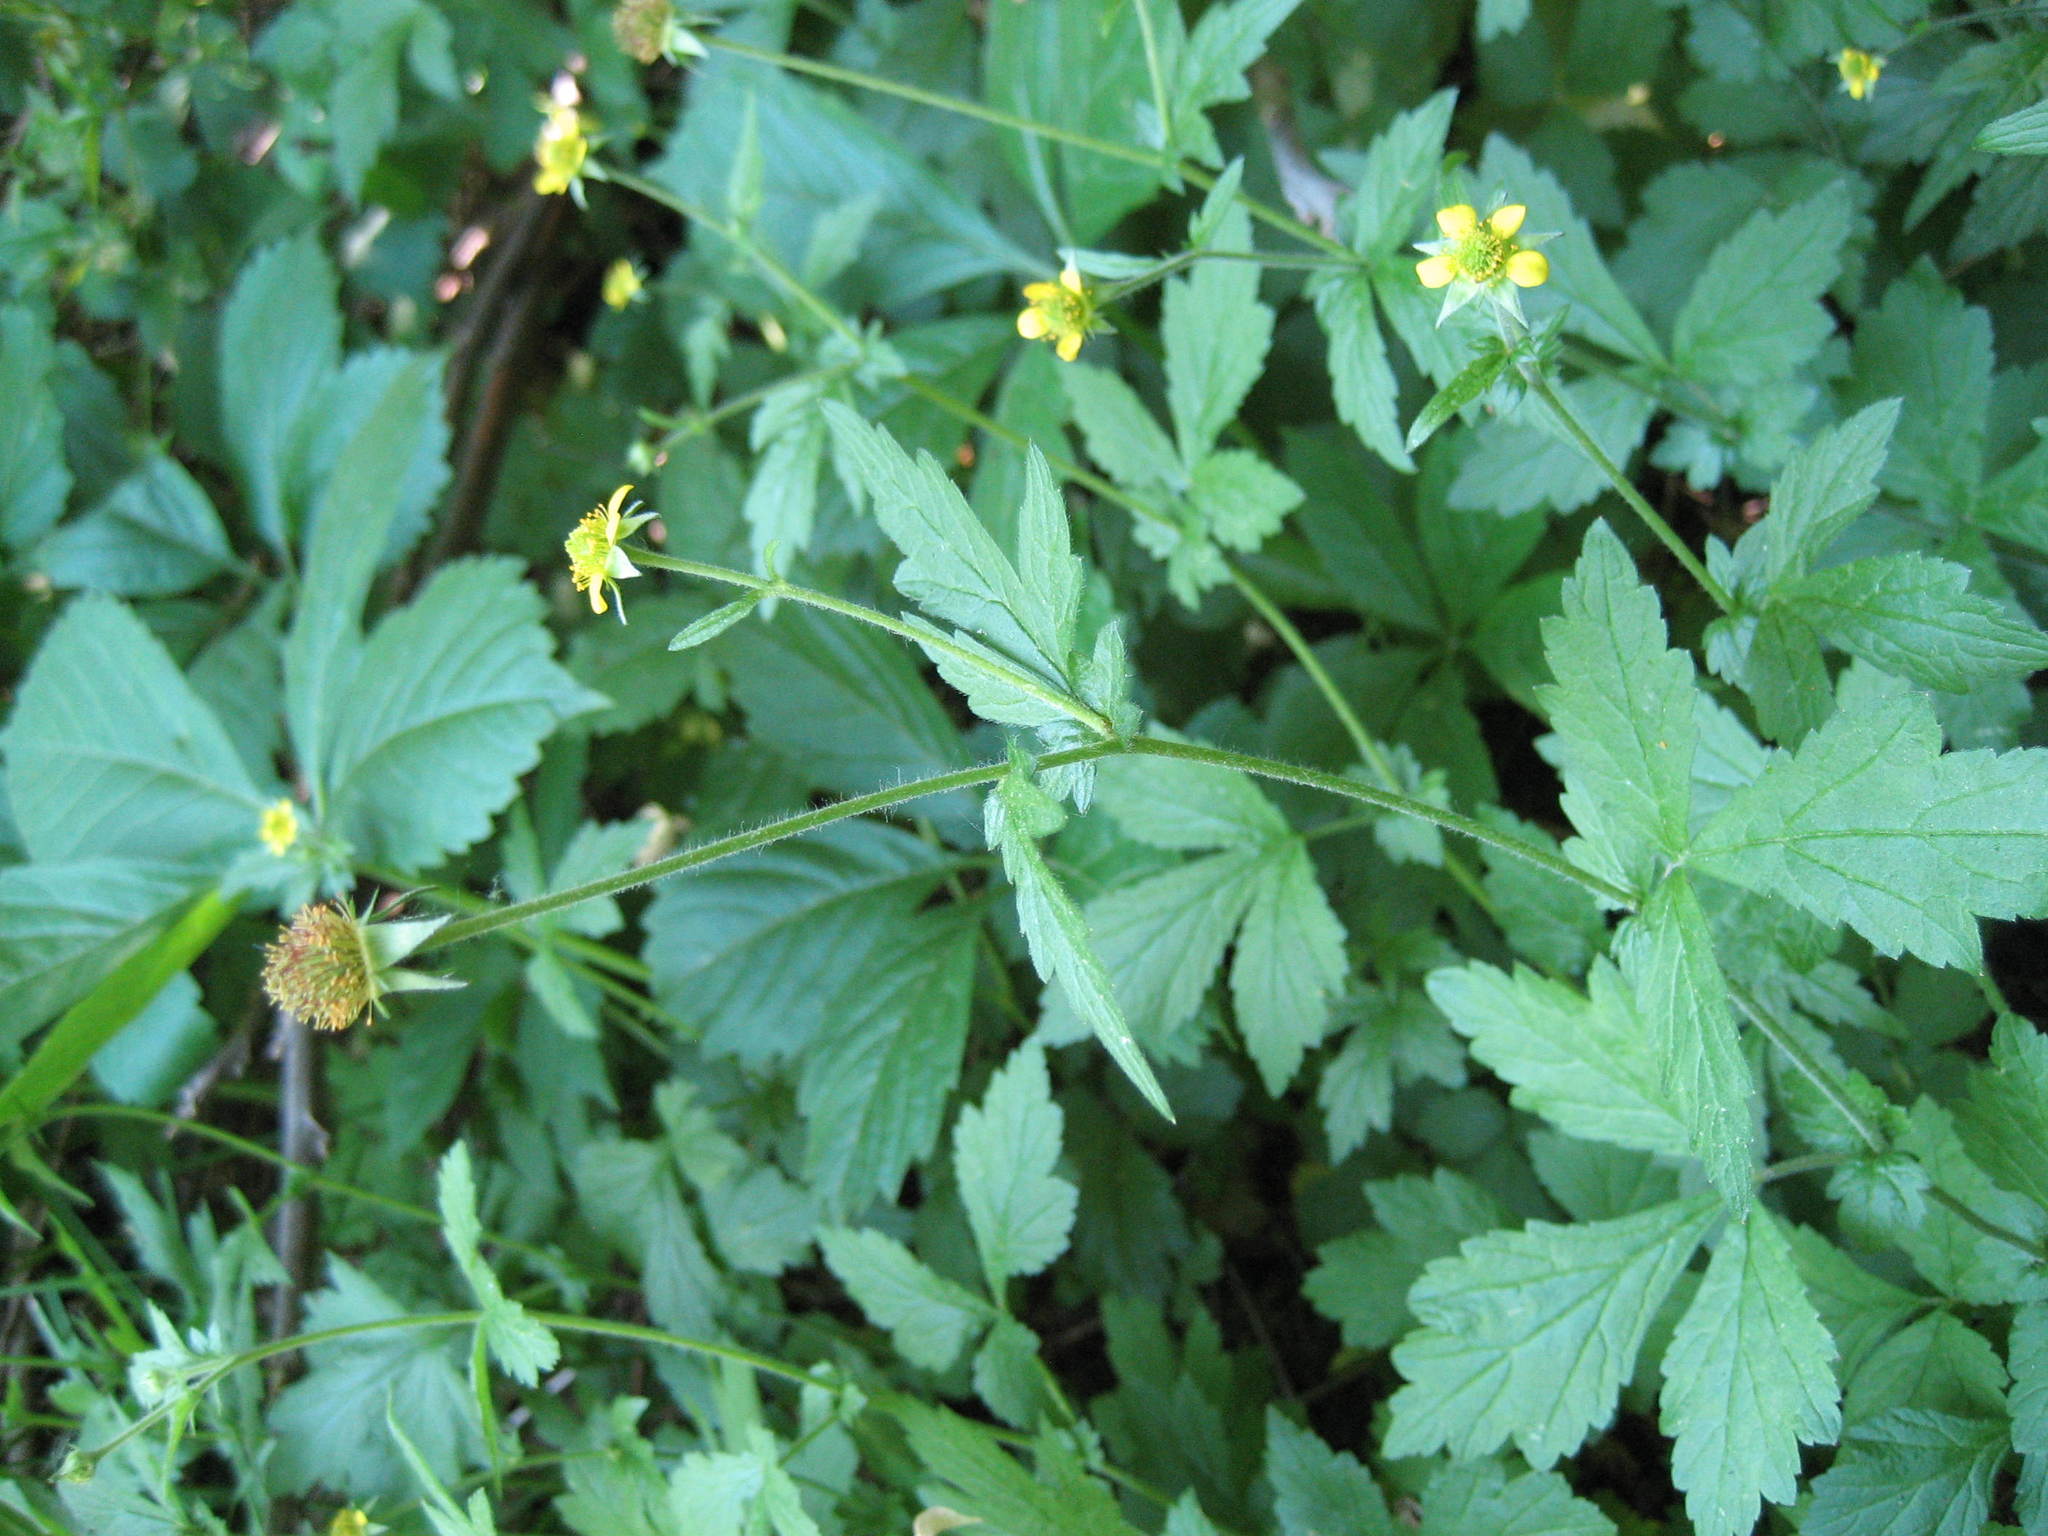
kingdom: Plantae
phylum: Tracheophyta
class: Magnoliopsida
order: Rosales
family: Rosaceae
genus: Geum
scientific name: Geum urbanum
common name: Wood avens
